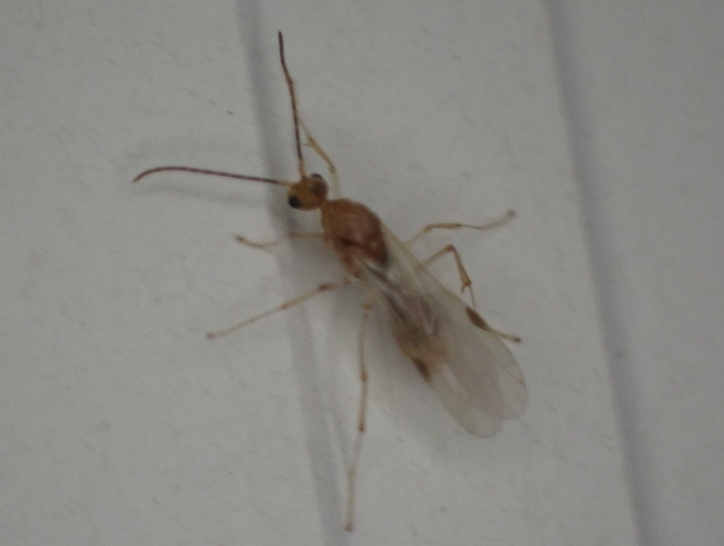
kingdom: Animalia
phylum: Arthropoda
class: Insecta
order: Hymenoptera
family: Formicidae
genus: Pachycondyla
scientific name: Pachycondyla chinensis
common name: Asian needle ant
